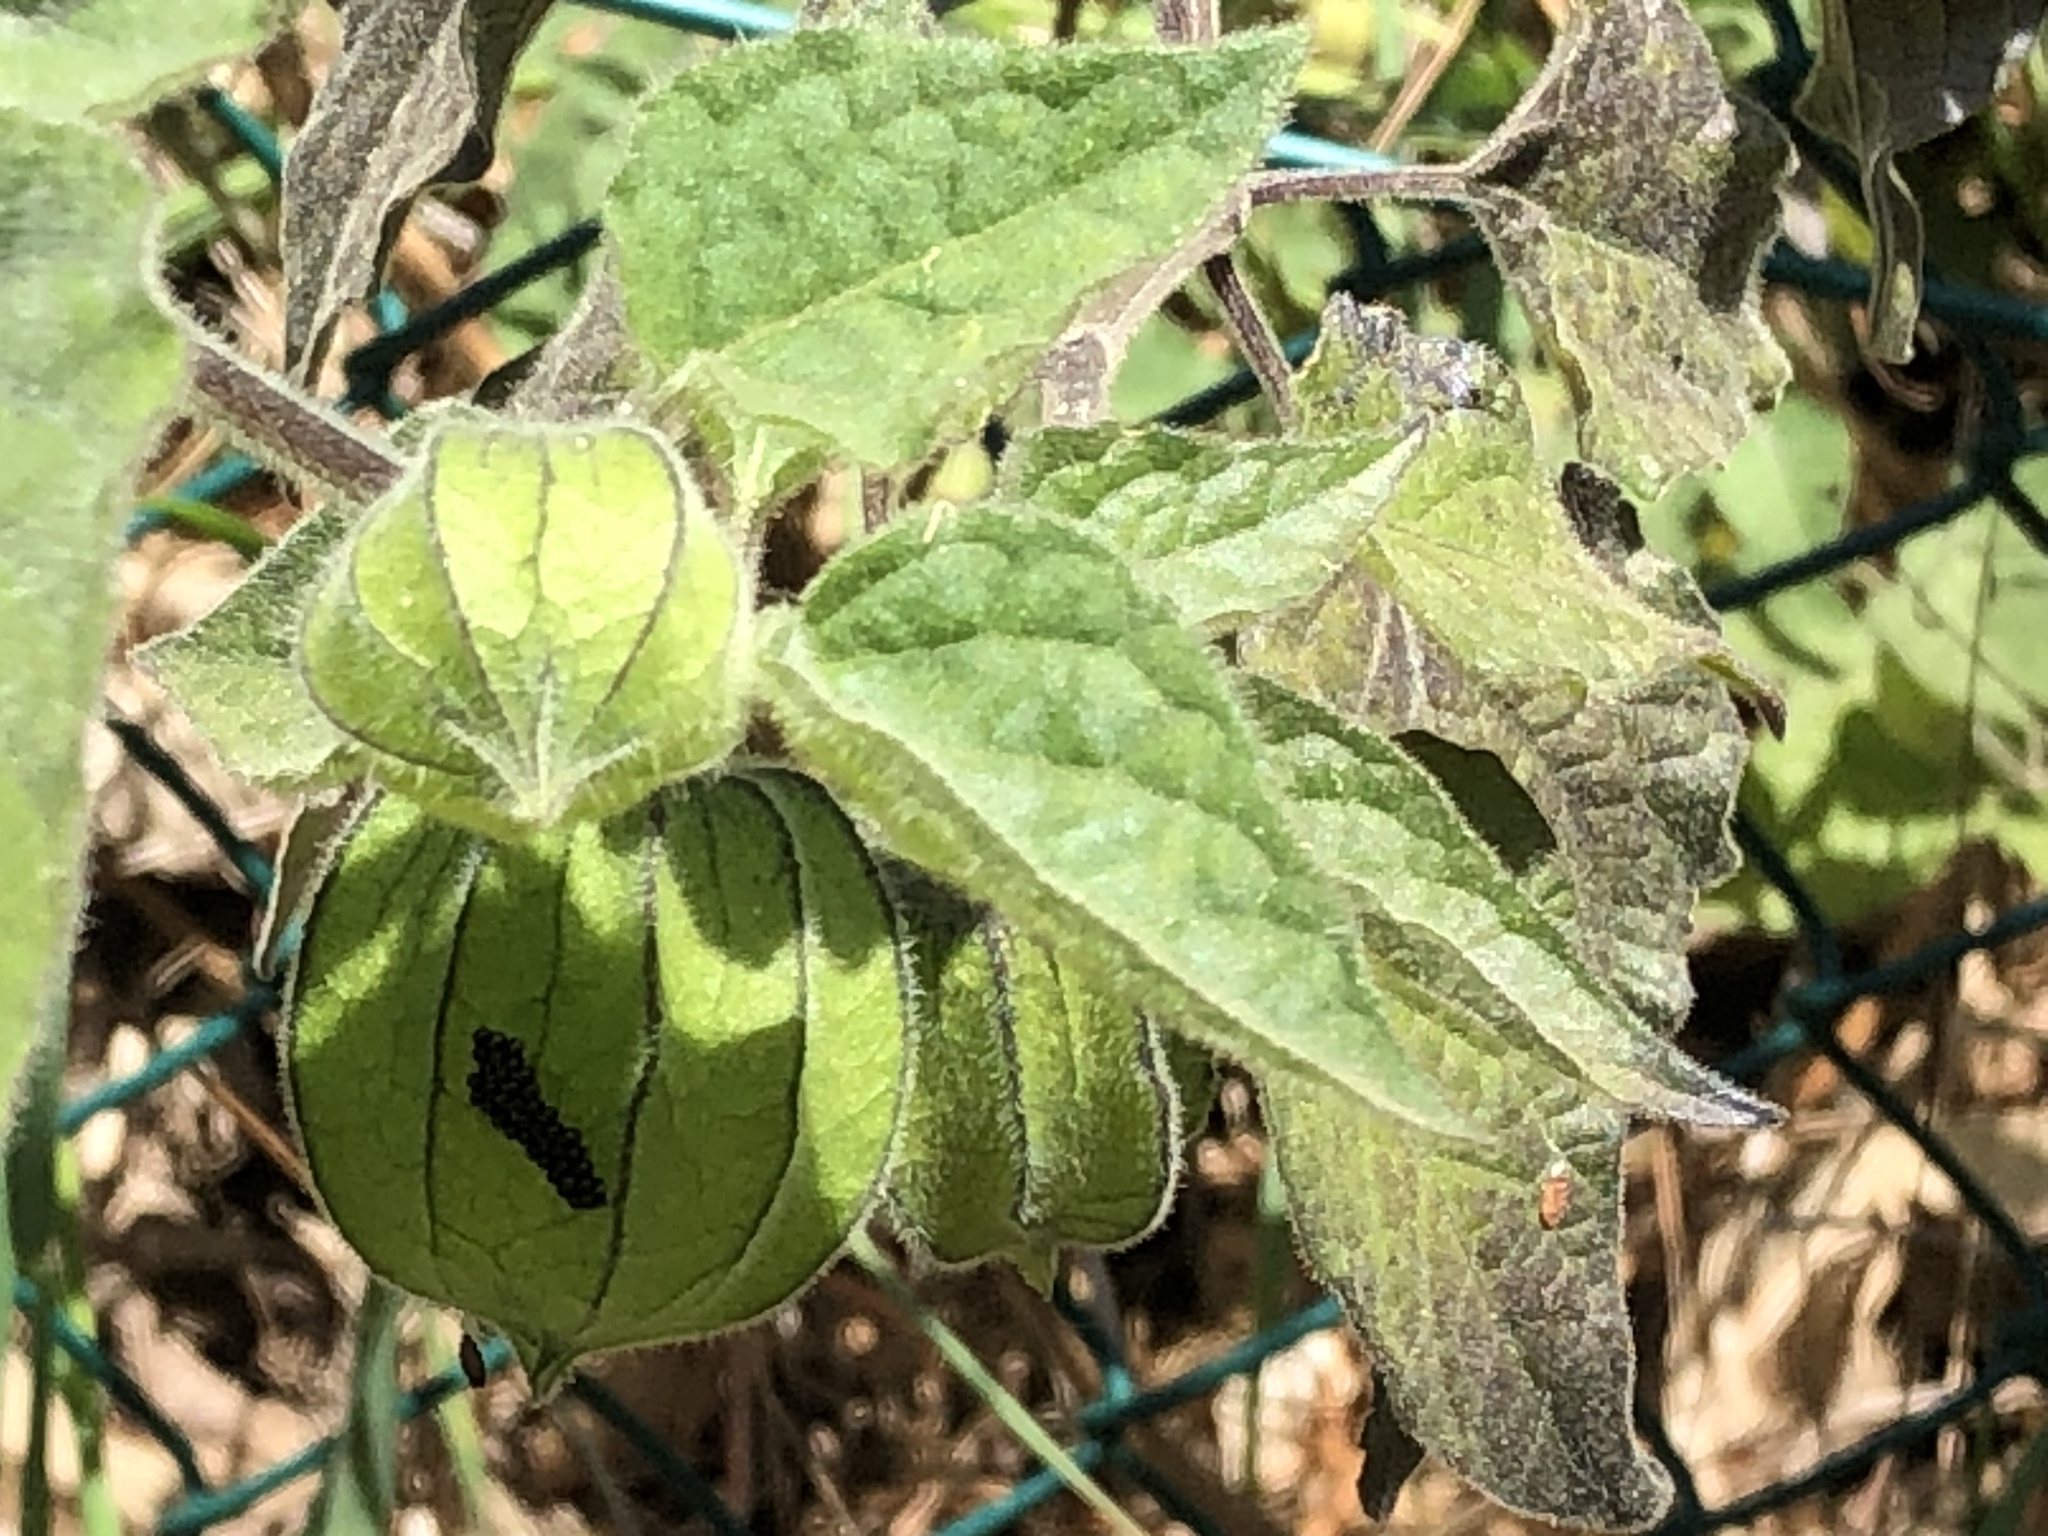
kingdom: Plantae
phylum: Tracheophyta
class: Magnoliopsida
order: Solanales
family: Solanaceae
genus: Physalis
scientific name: Physalis peruviana
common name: Cape-gooseberry
